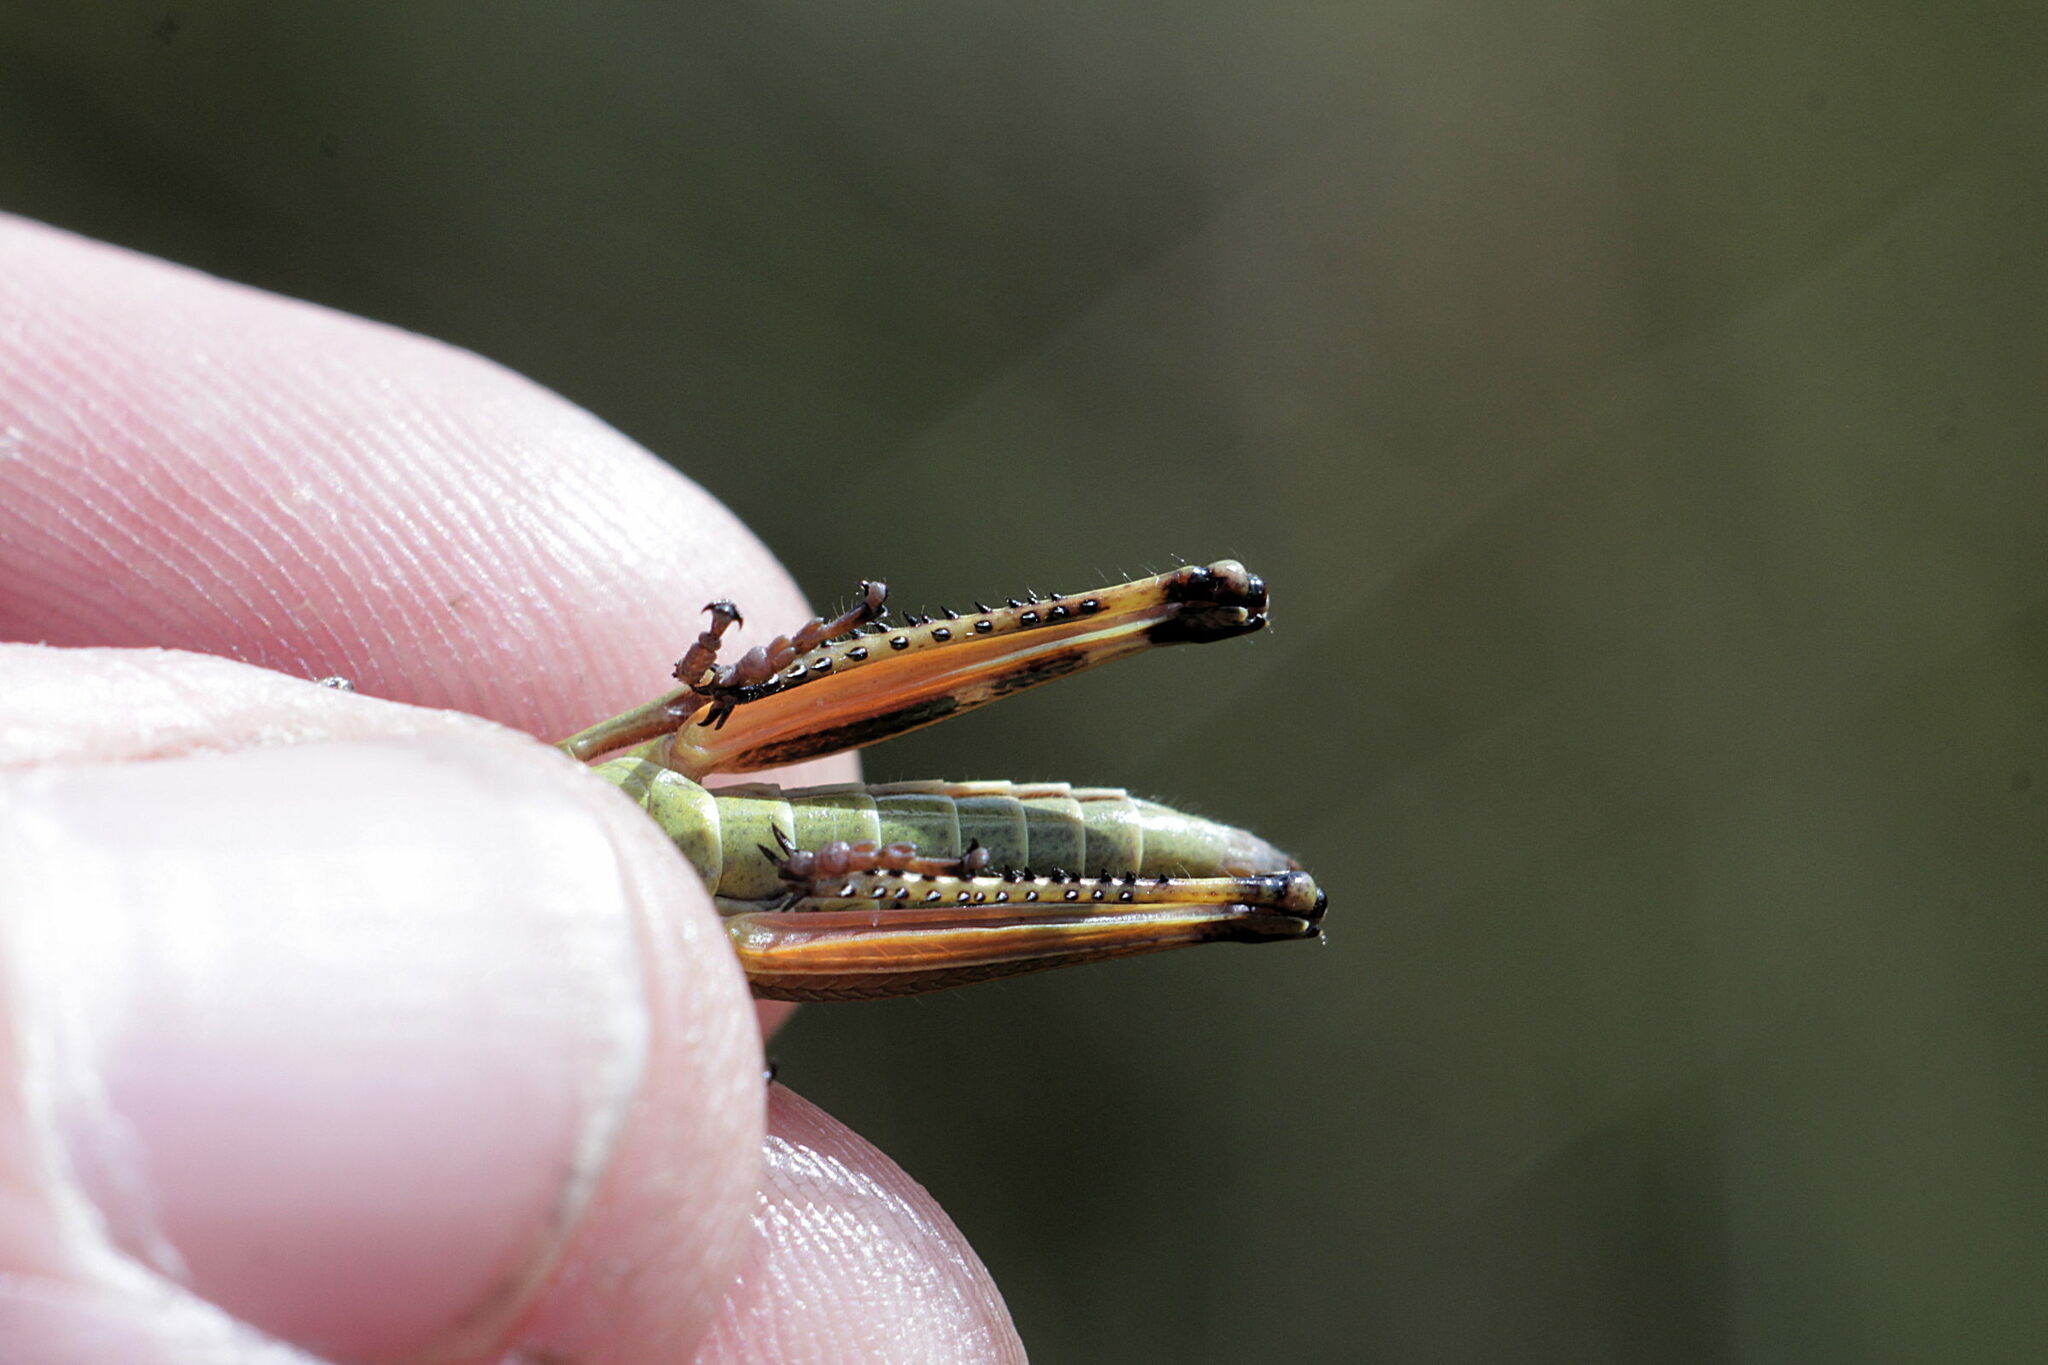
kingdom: Animalia
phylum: Arthropoda
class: Insecta
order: Orthoptera
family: Acrididae
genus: Stethophyma
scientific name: Stethophyma grossum
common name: Large marsh grasshopper
